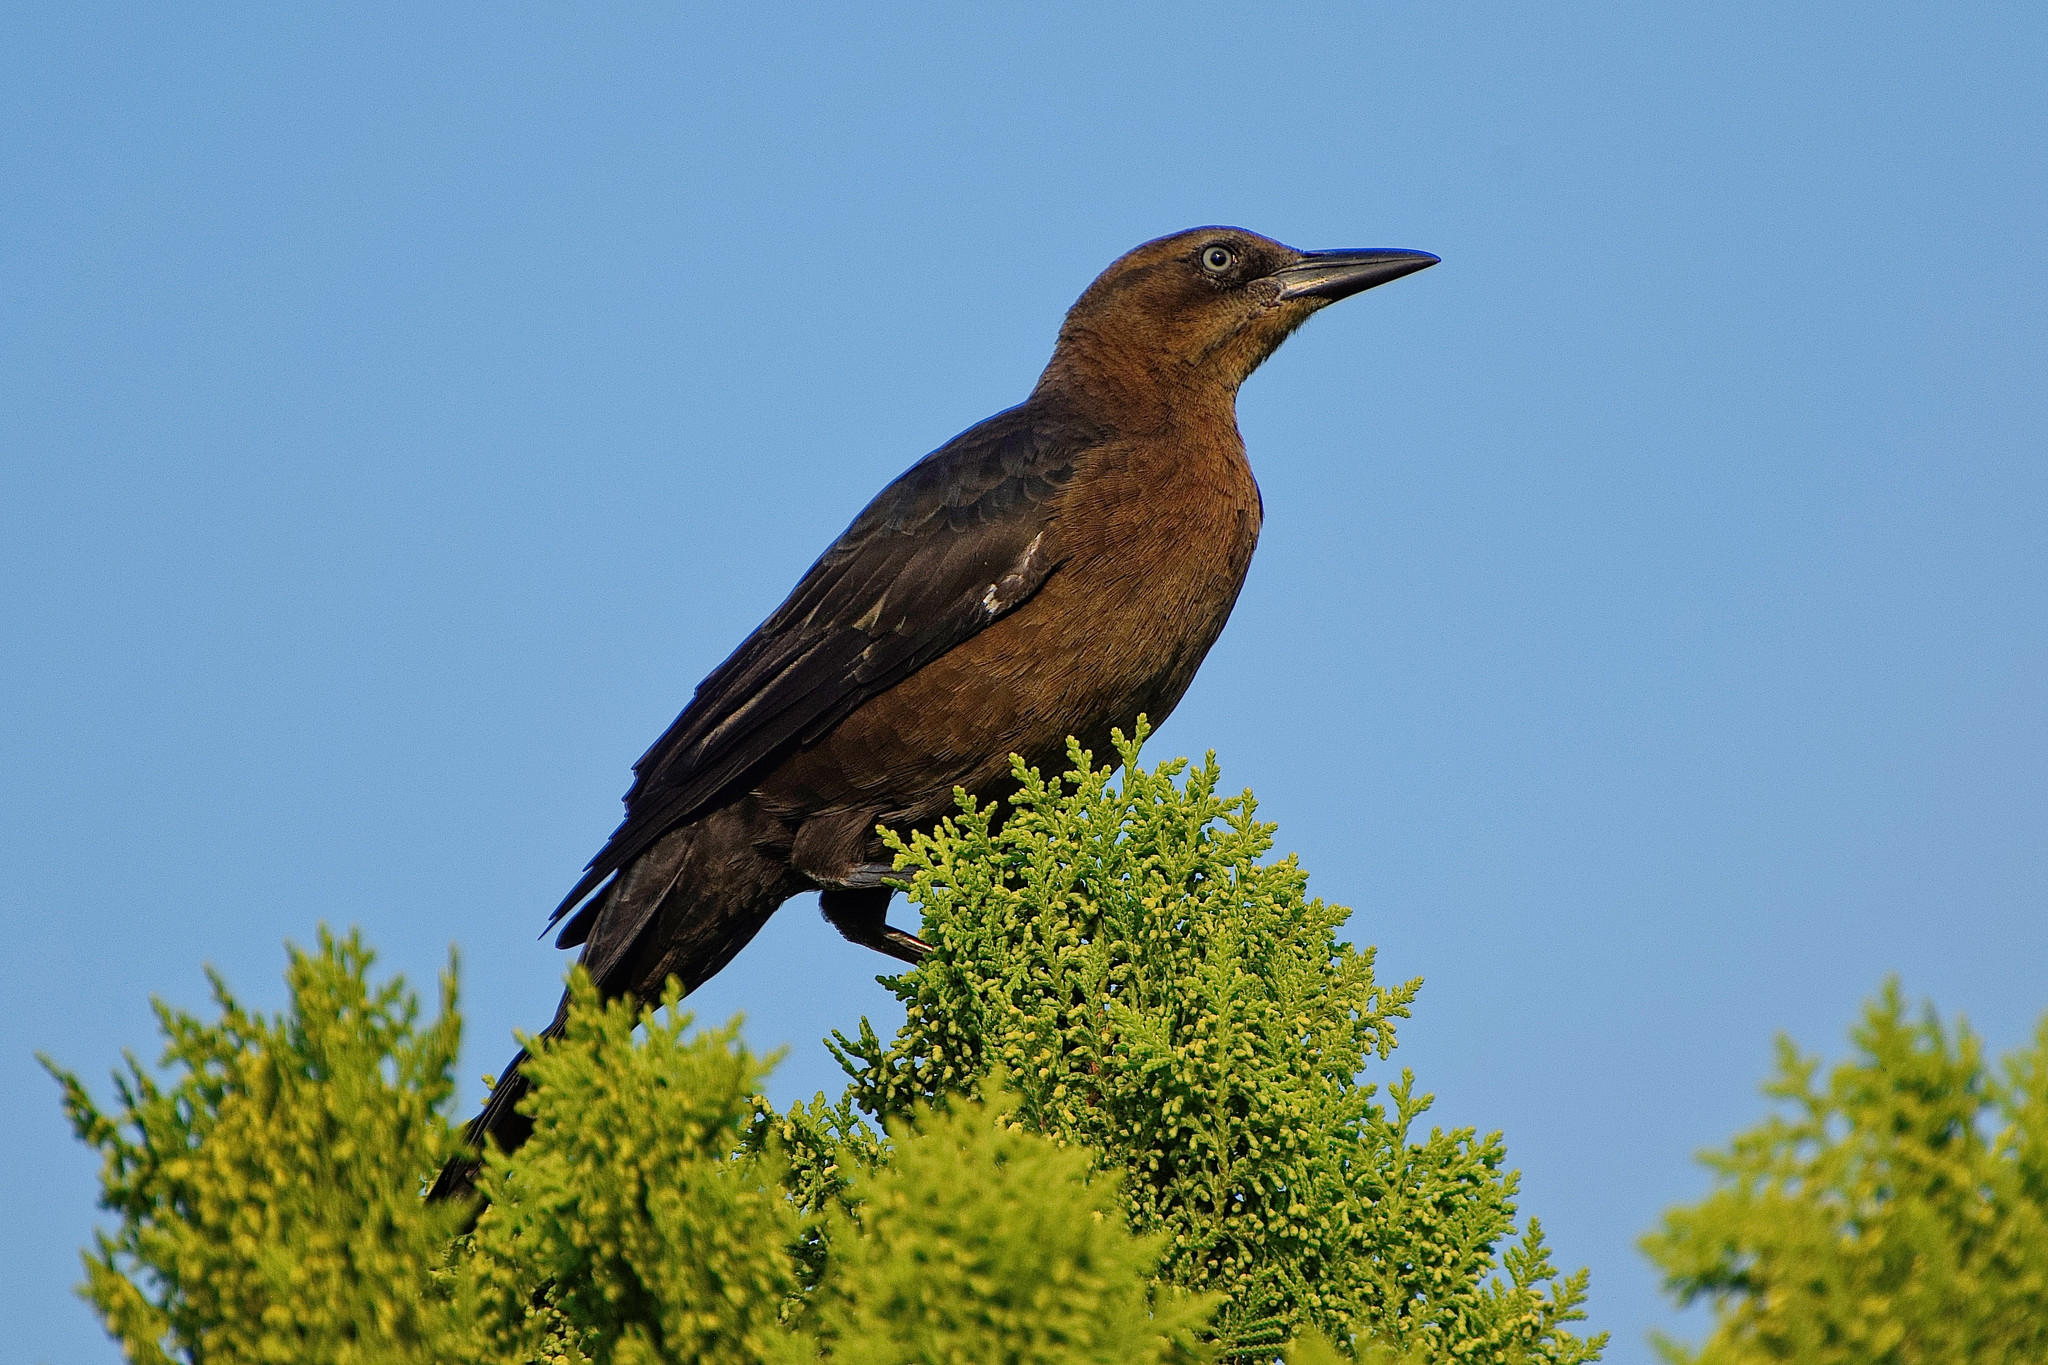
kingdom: Animalia
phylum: Chordata
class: Aves
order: Passeriformes
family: Icteridae
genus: Quiscalus
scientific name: Quiscalus mexicanus
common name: Great-tailed grackle
